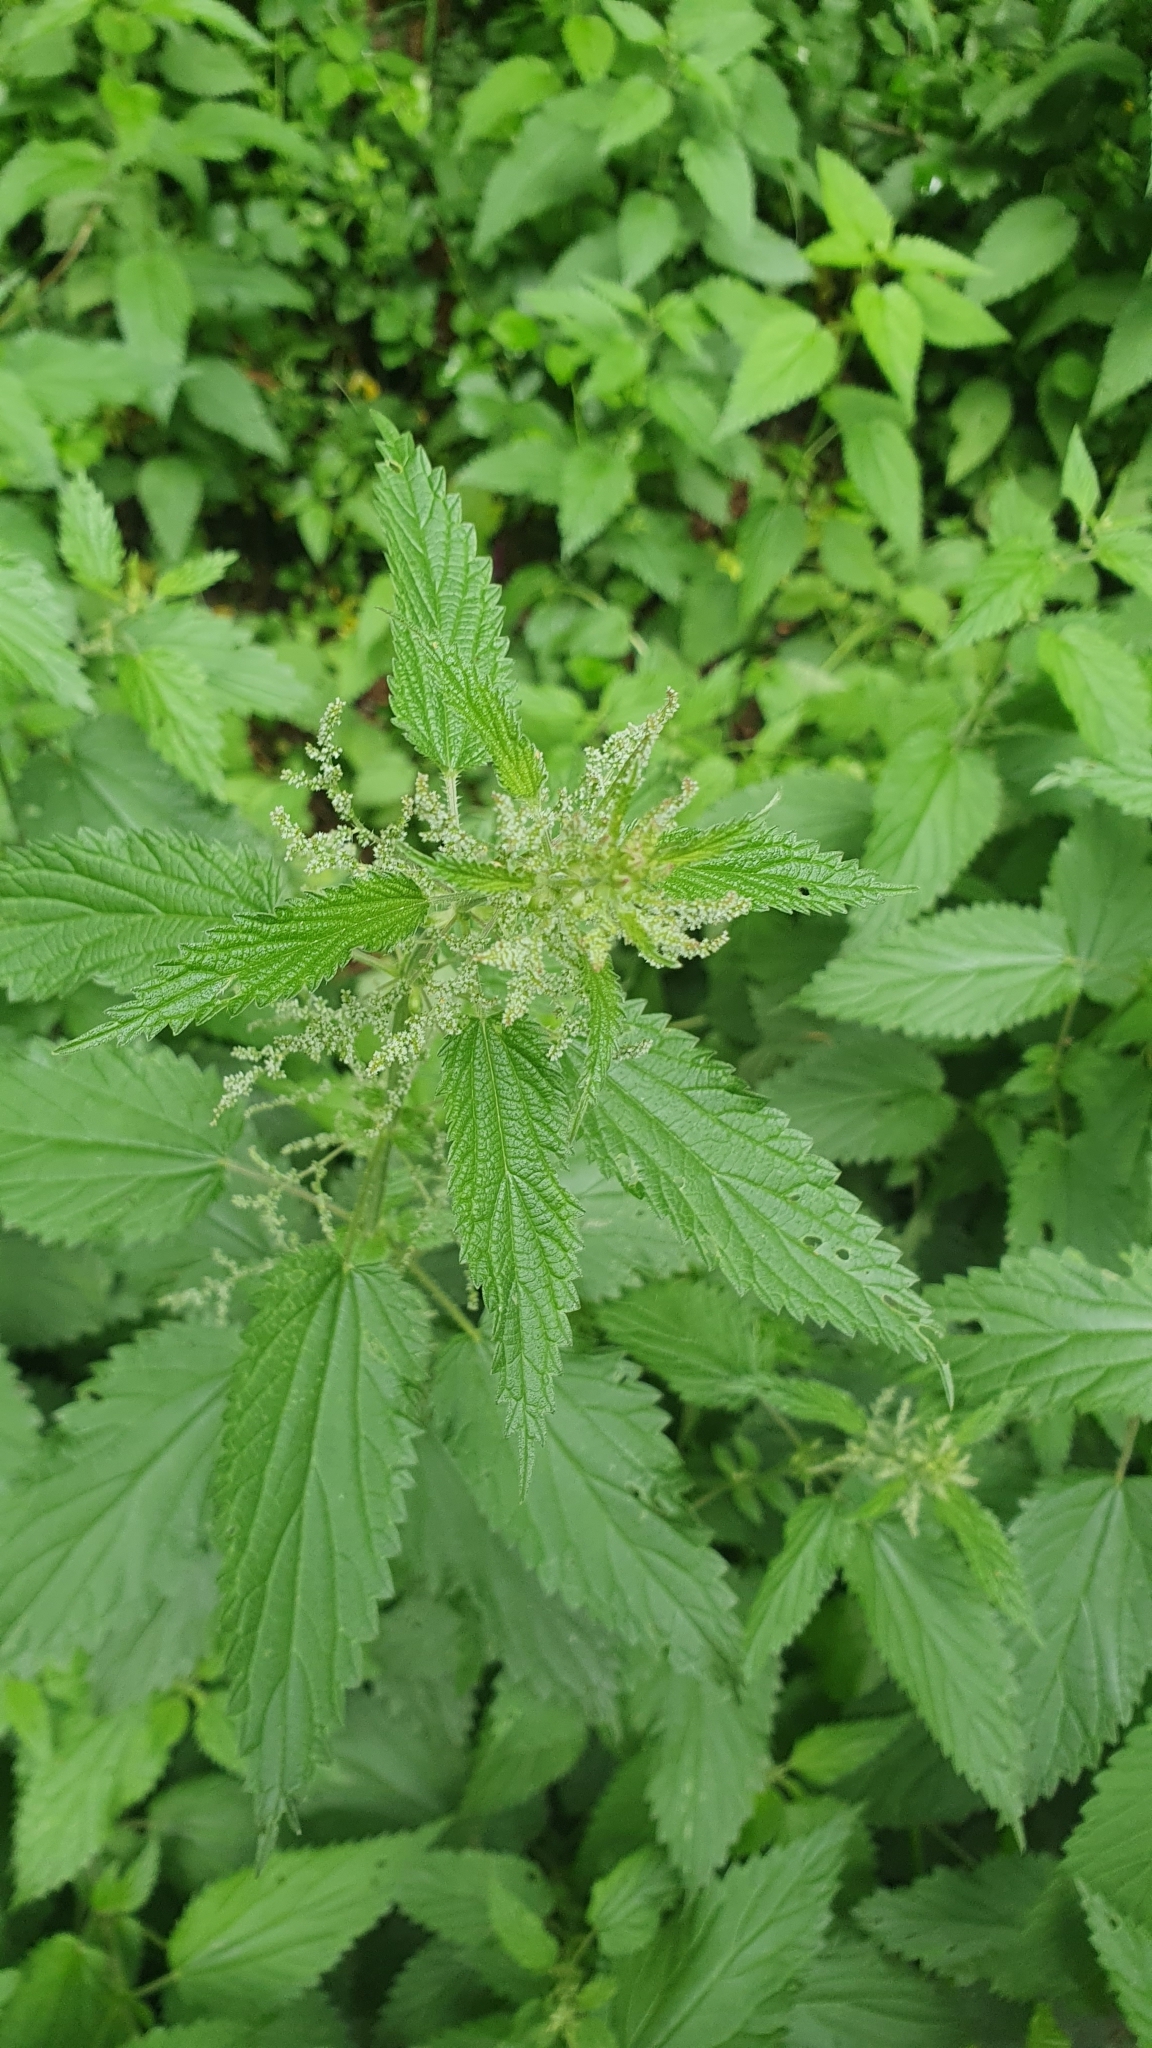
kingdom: Plantae
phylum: Tracheophyta
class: Magnoliopsida
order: Rosales
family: Urticaceae
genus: Urtica
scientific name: Urtica dioica
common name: Common nettle
